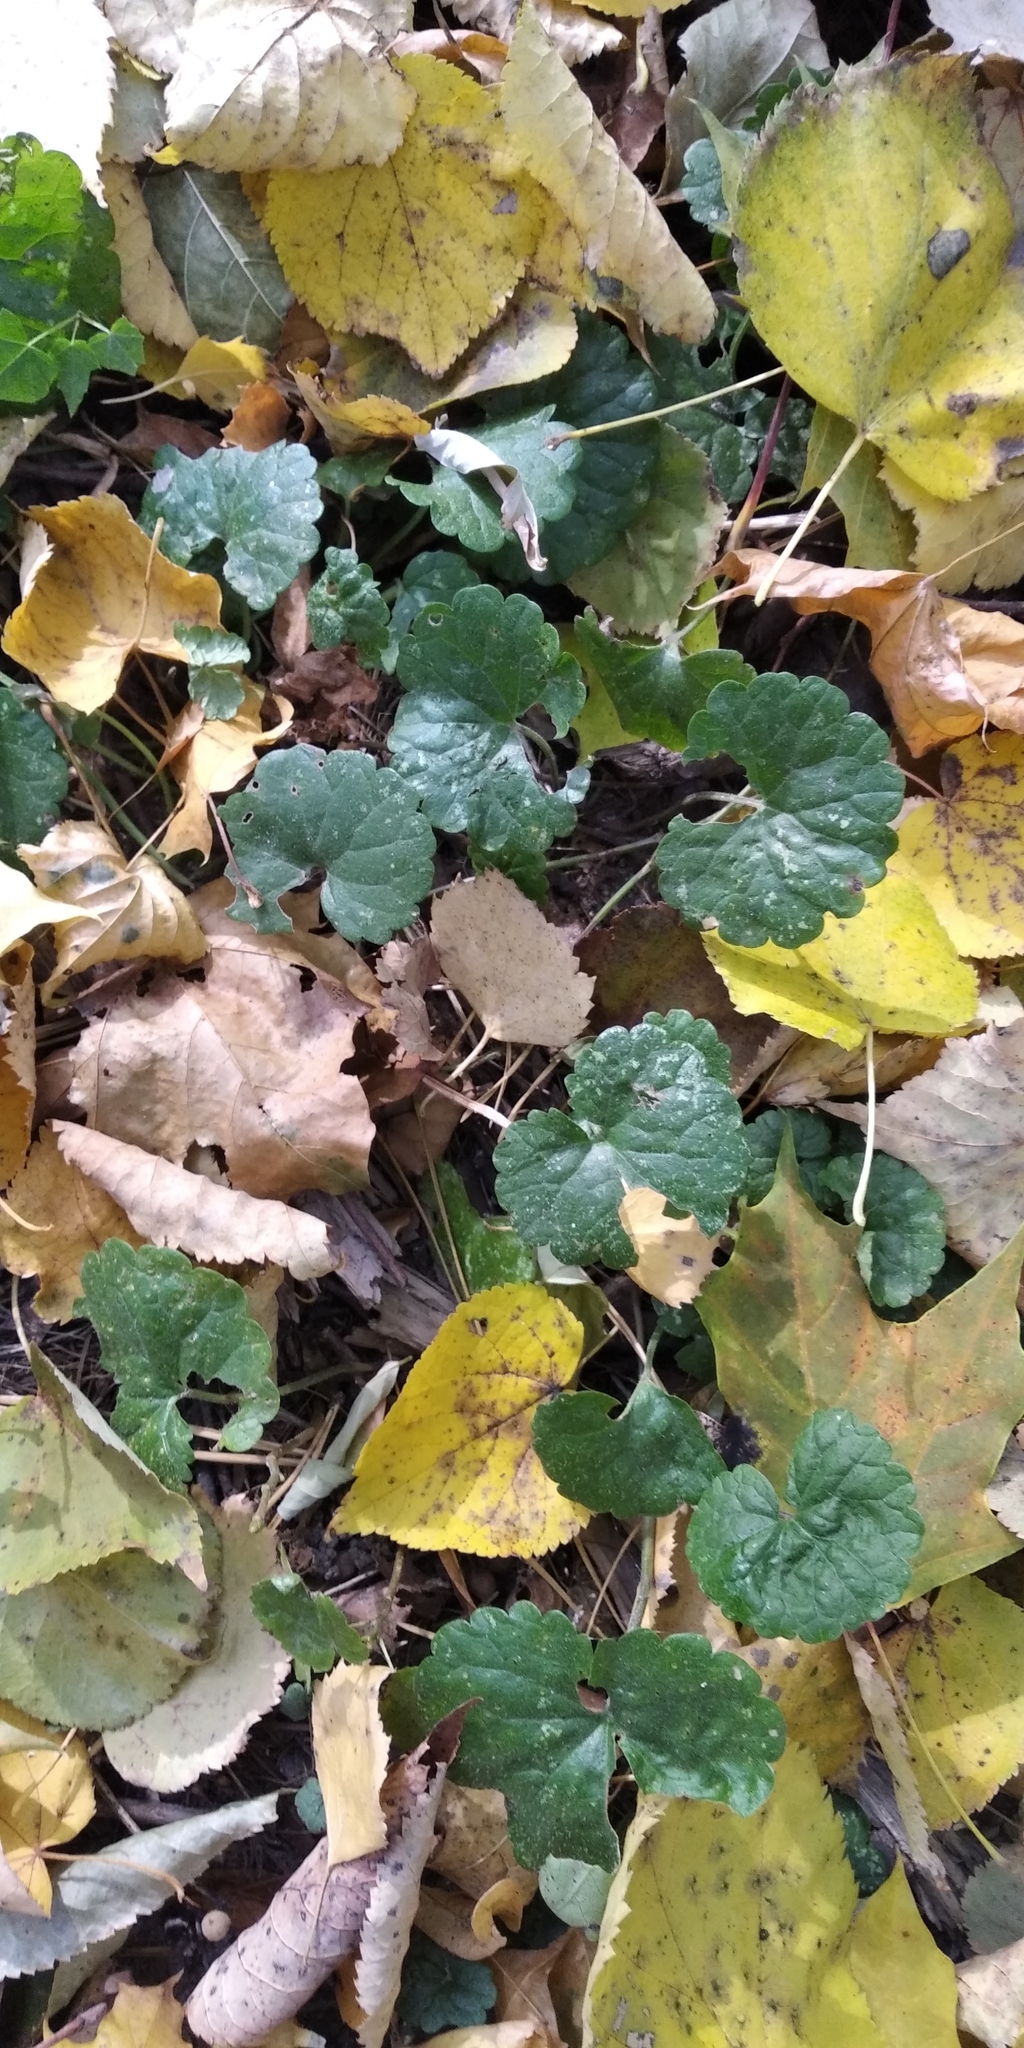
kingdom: Plantae
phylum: Tracheophyta
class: Magnoliopsida
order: Lamiales
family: Lamiaceae
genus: Glechoma
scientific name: Glechoma hederacea
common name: Ground ivy
